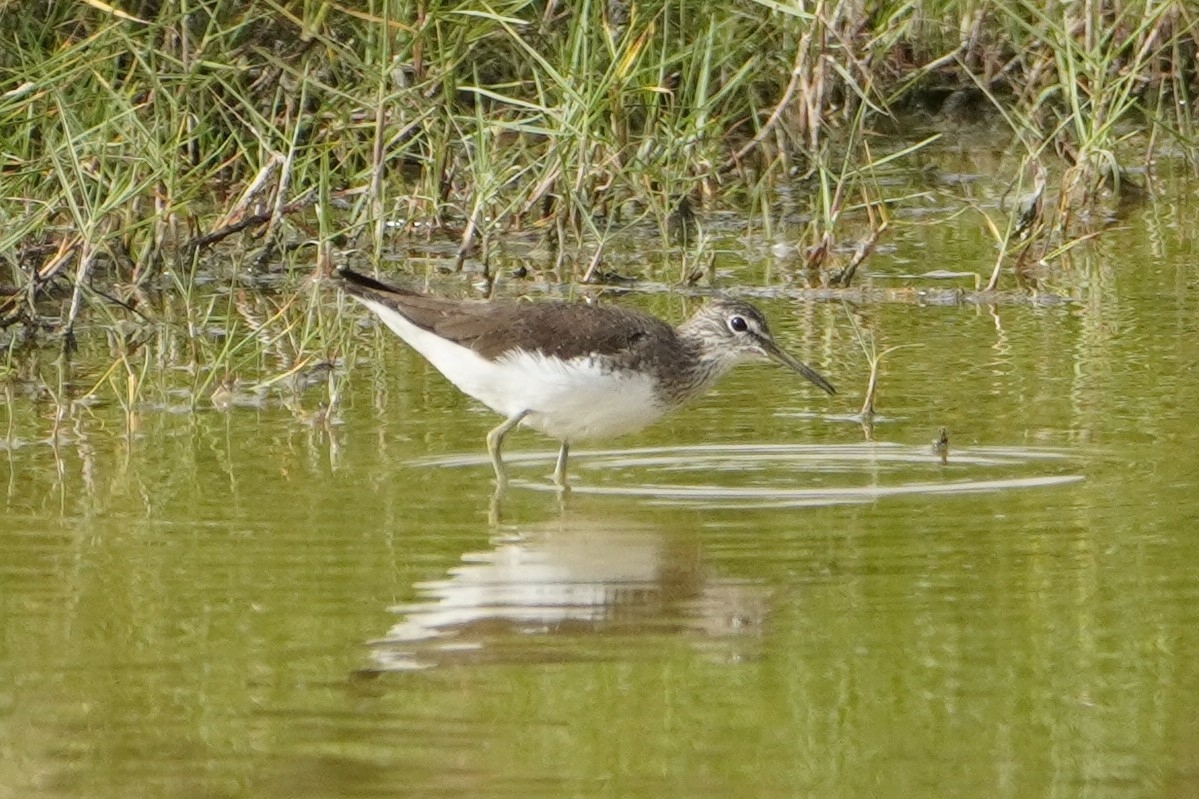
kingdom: Animalia
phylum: Chordata
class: Aves
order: Charadriiformes
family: Scolopacidae
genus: Tringa
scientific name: Tringa ochropus
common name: Green sandpiper
